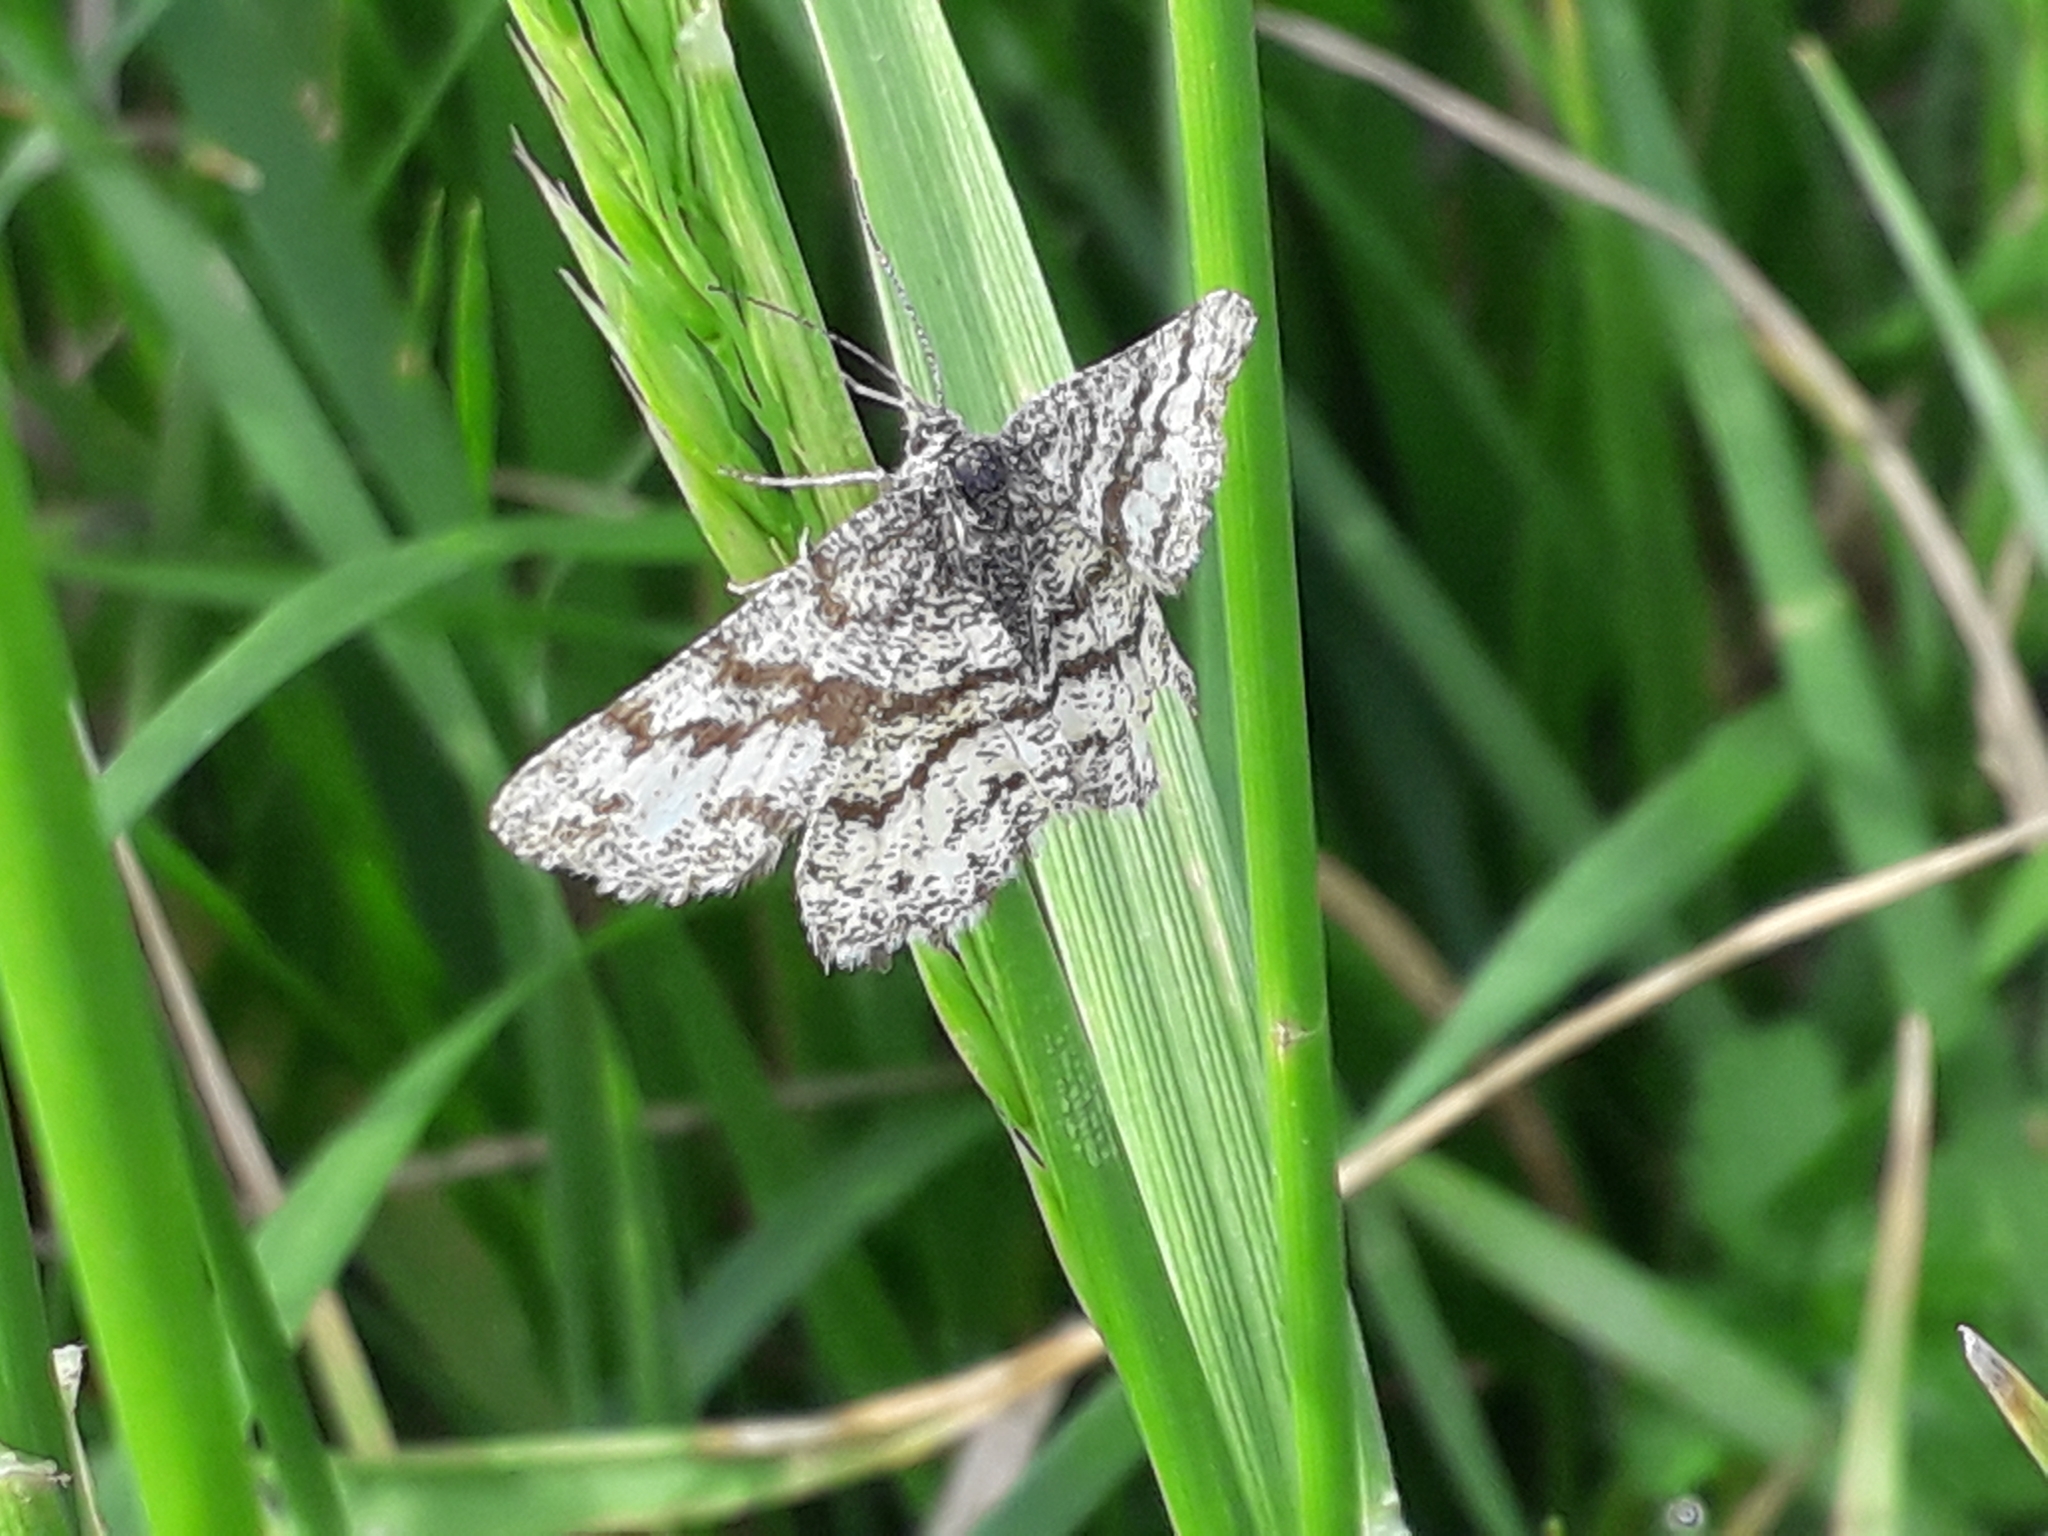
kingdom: Animalia
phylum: Arthropoda
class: Insecta
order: Lepidoptera
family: Geometridae
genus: Ematurga
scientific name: Ematurga atomaria
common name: Common heath
